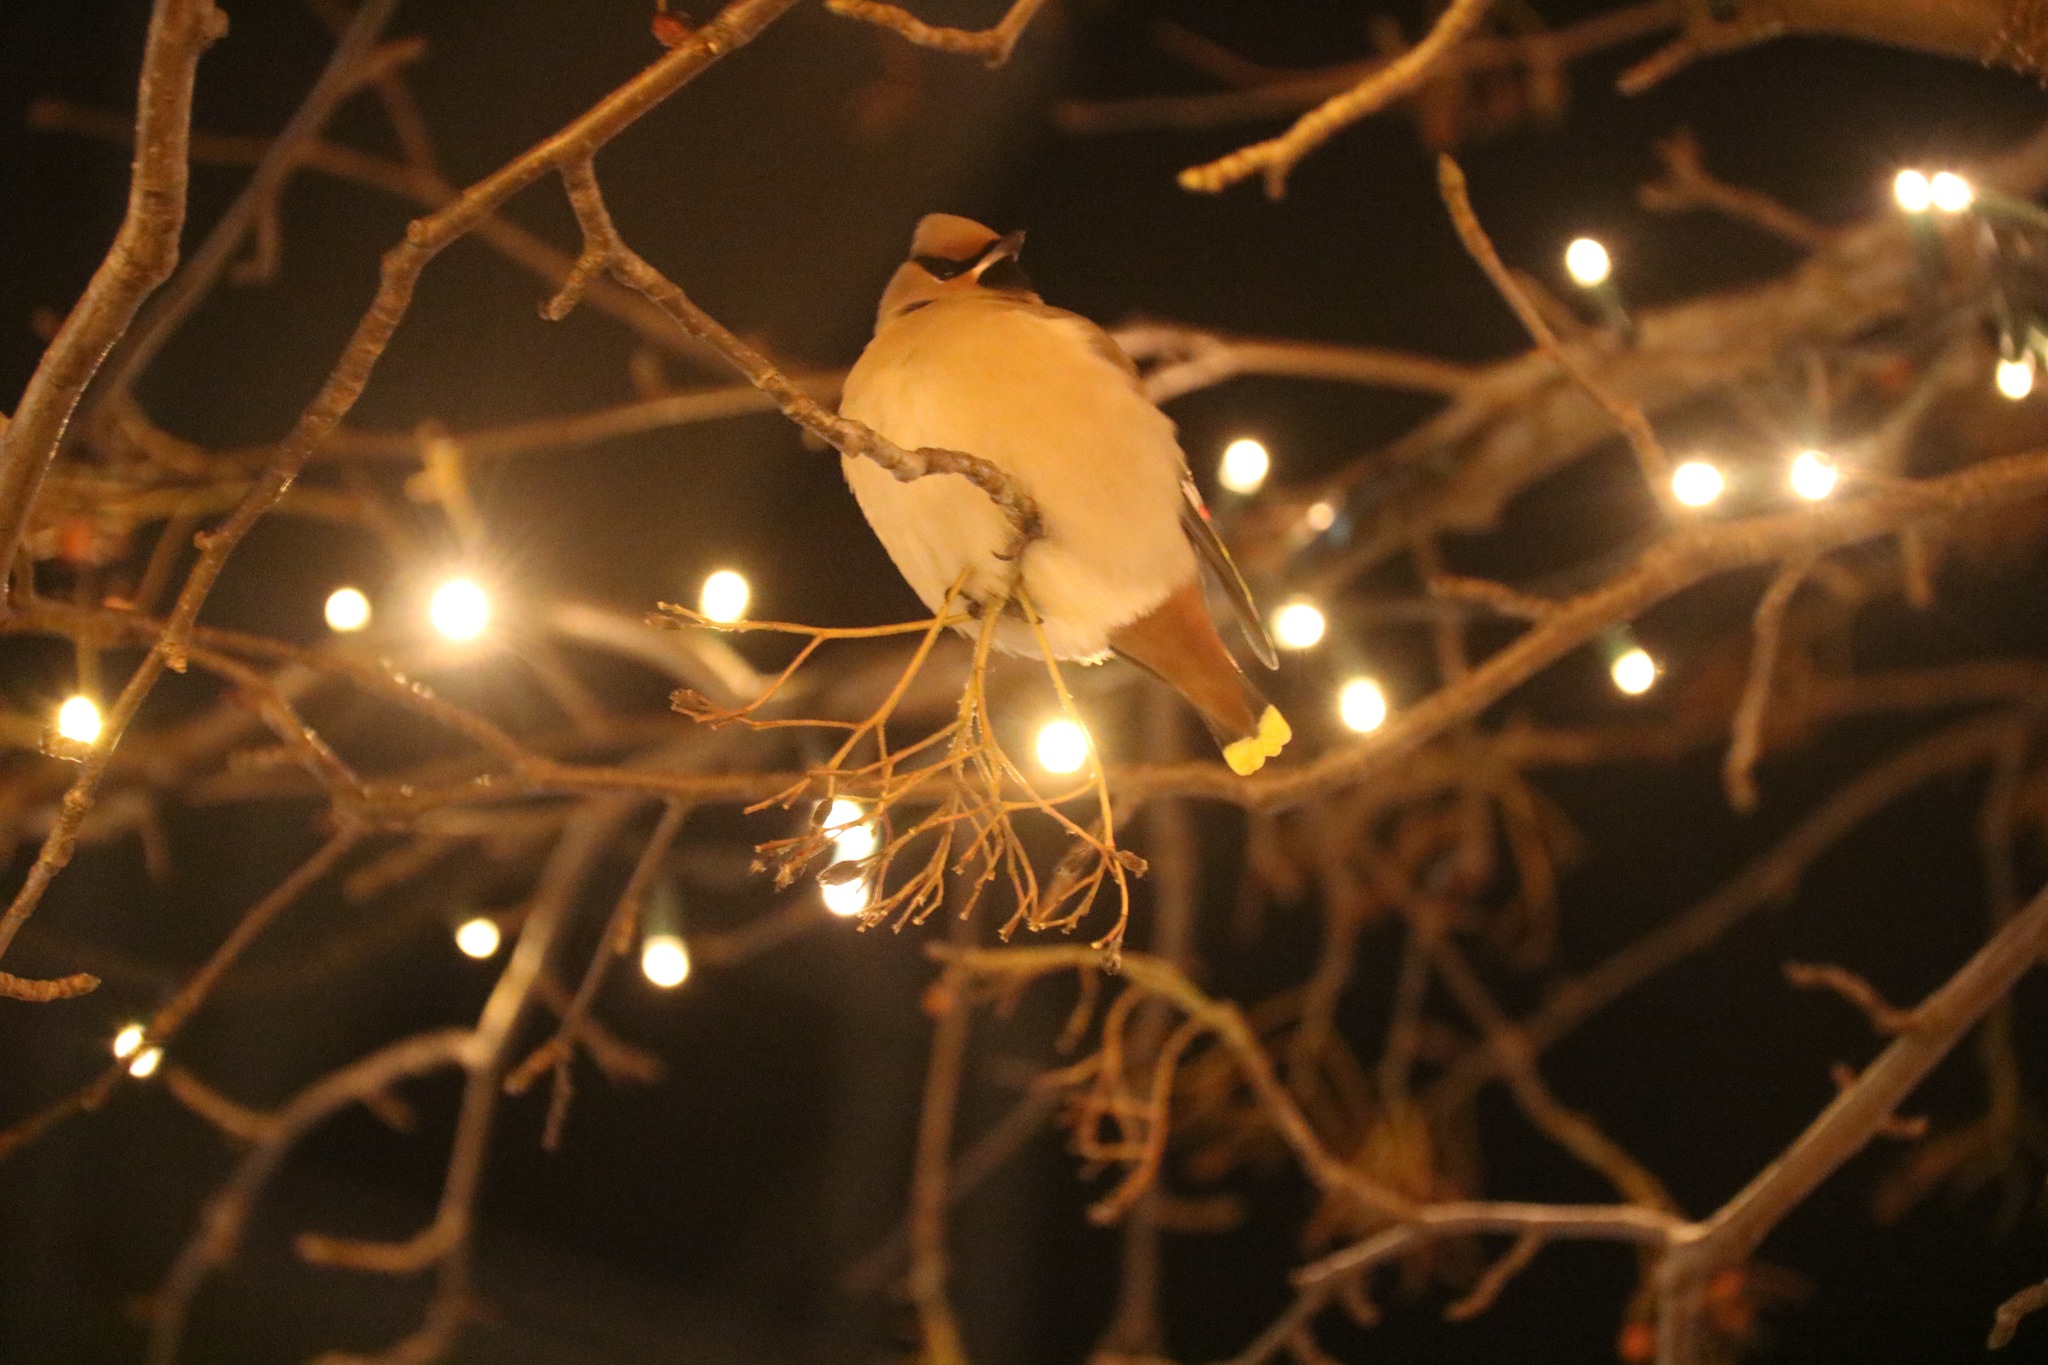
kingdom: Animalia
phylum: Chordata
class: Aves
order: Passeriformes
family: Bombycillidae
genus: Bombycilla
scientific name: Bombycilla garrulus
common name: Bohemian waxwing
